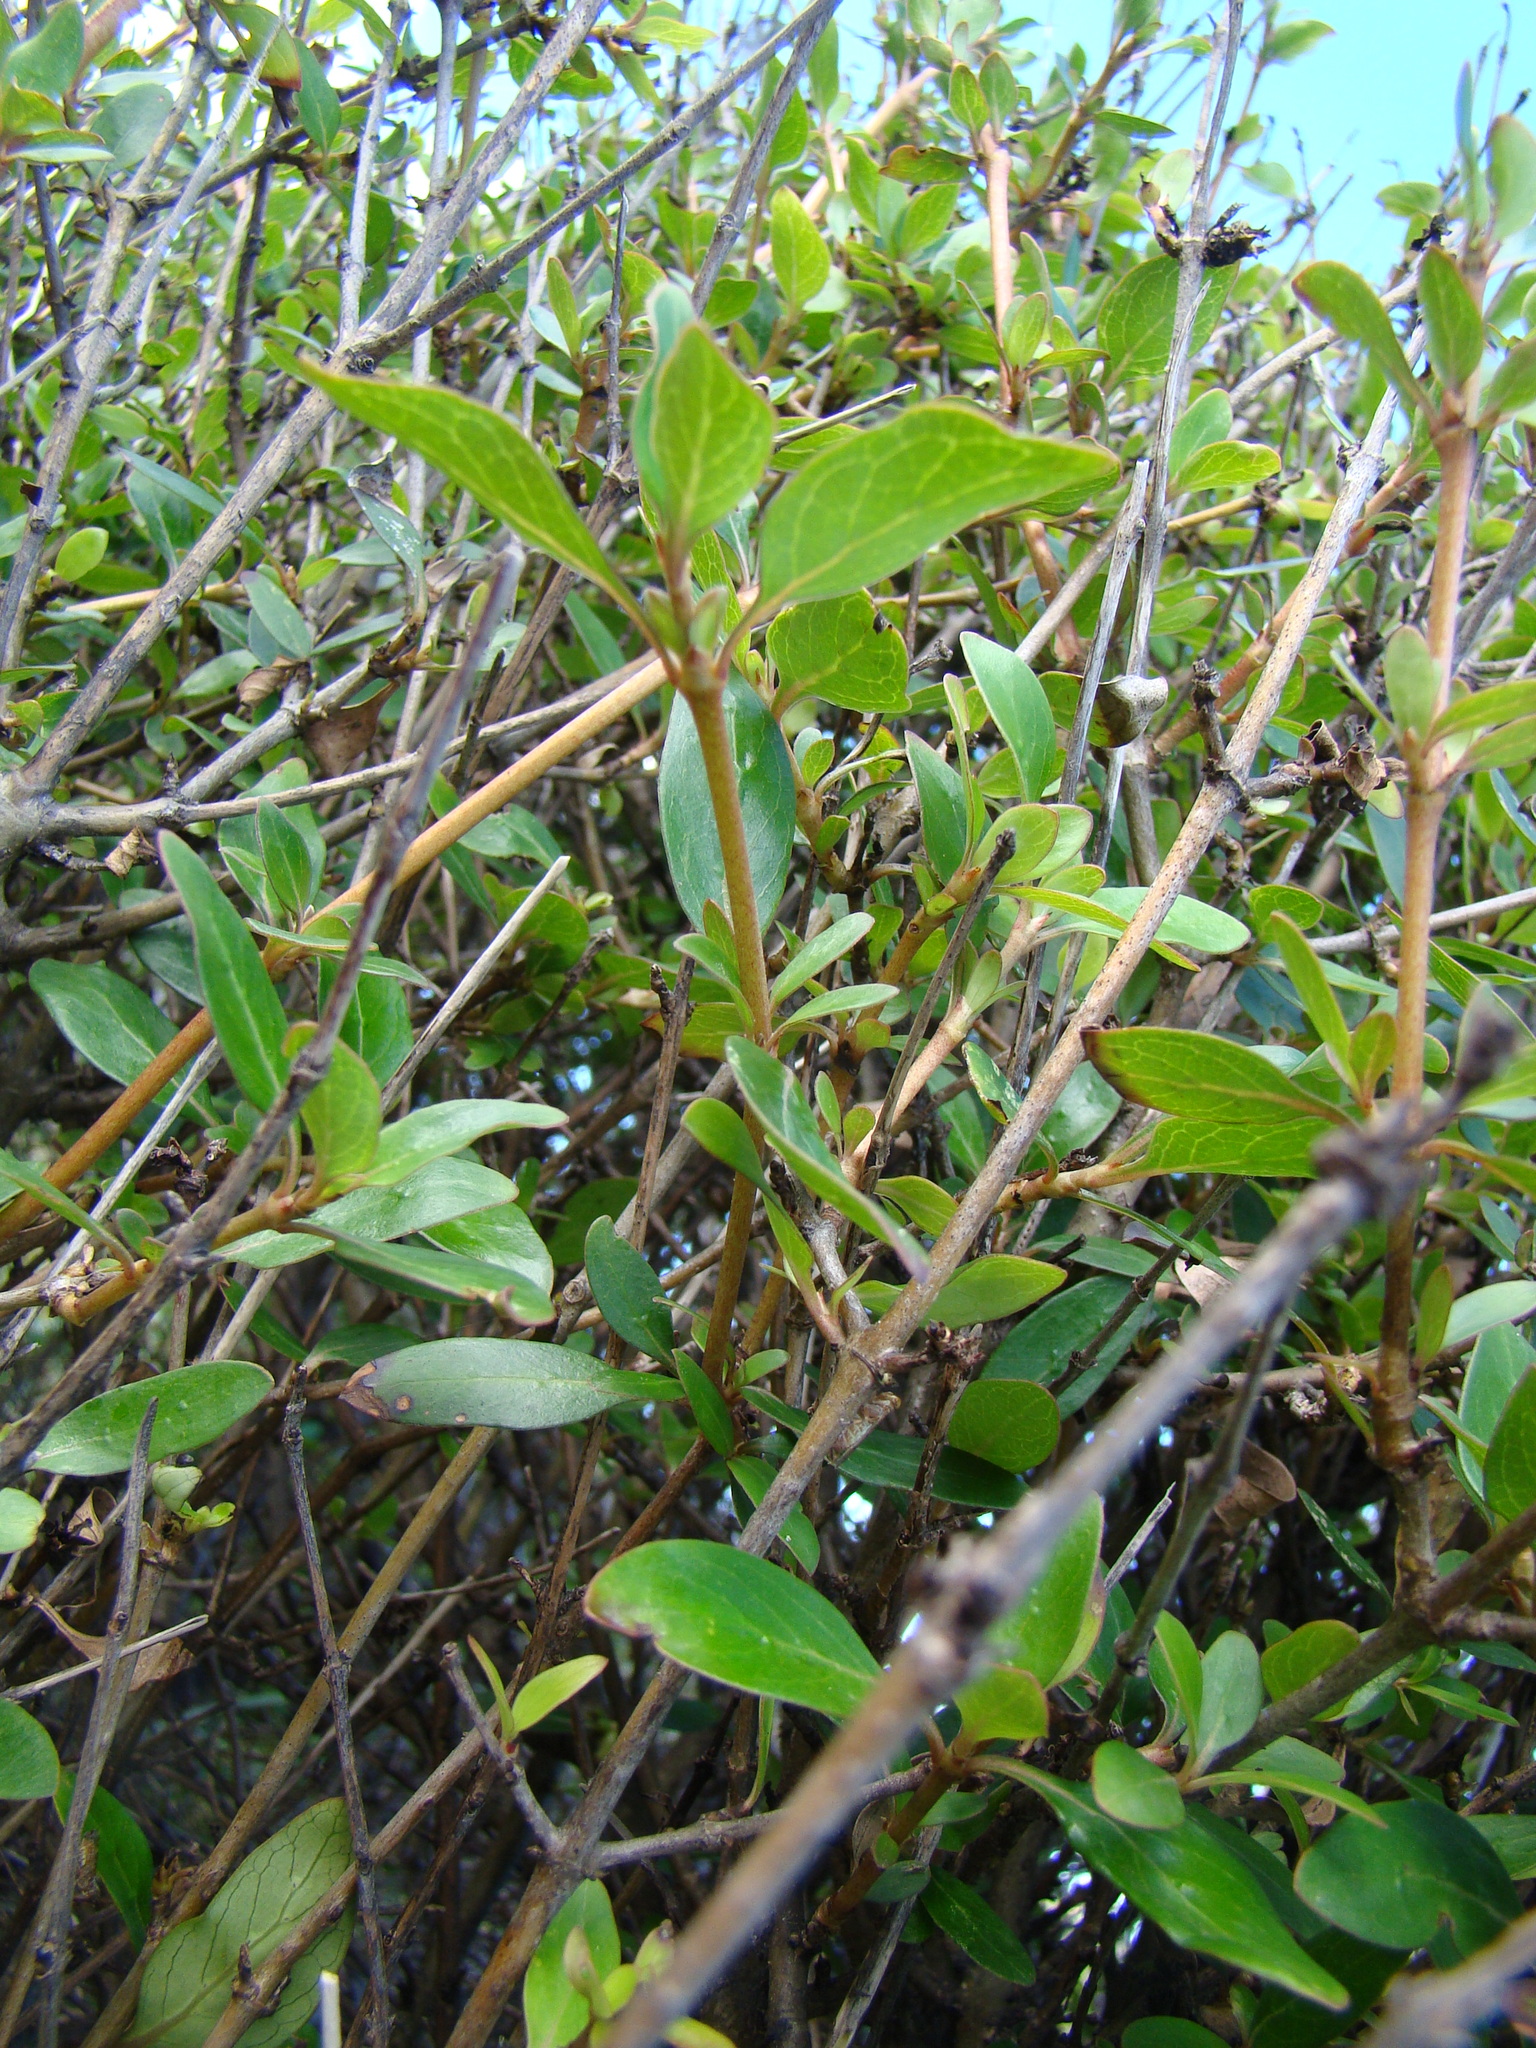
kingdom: Plantae
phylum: Tracheophyta
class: Magnoliopsida
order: Gentianales
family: Rubiaceae
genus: Coprosma
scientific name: Coprosma robusta
